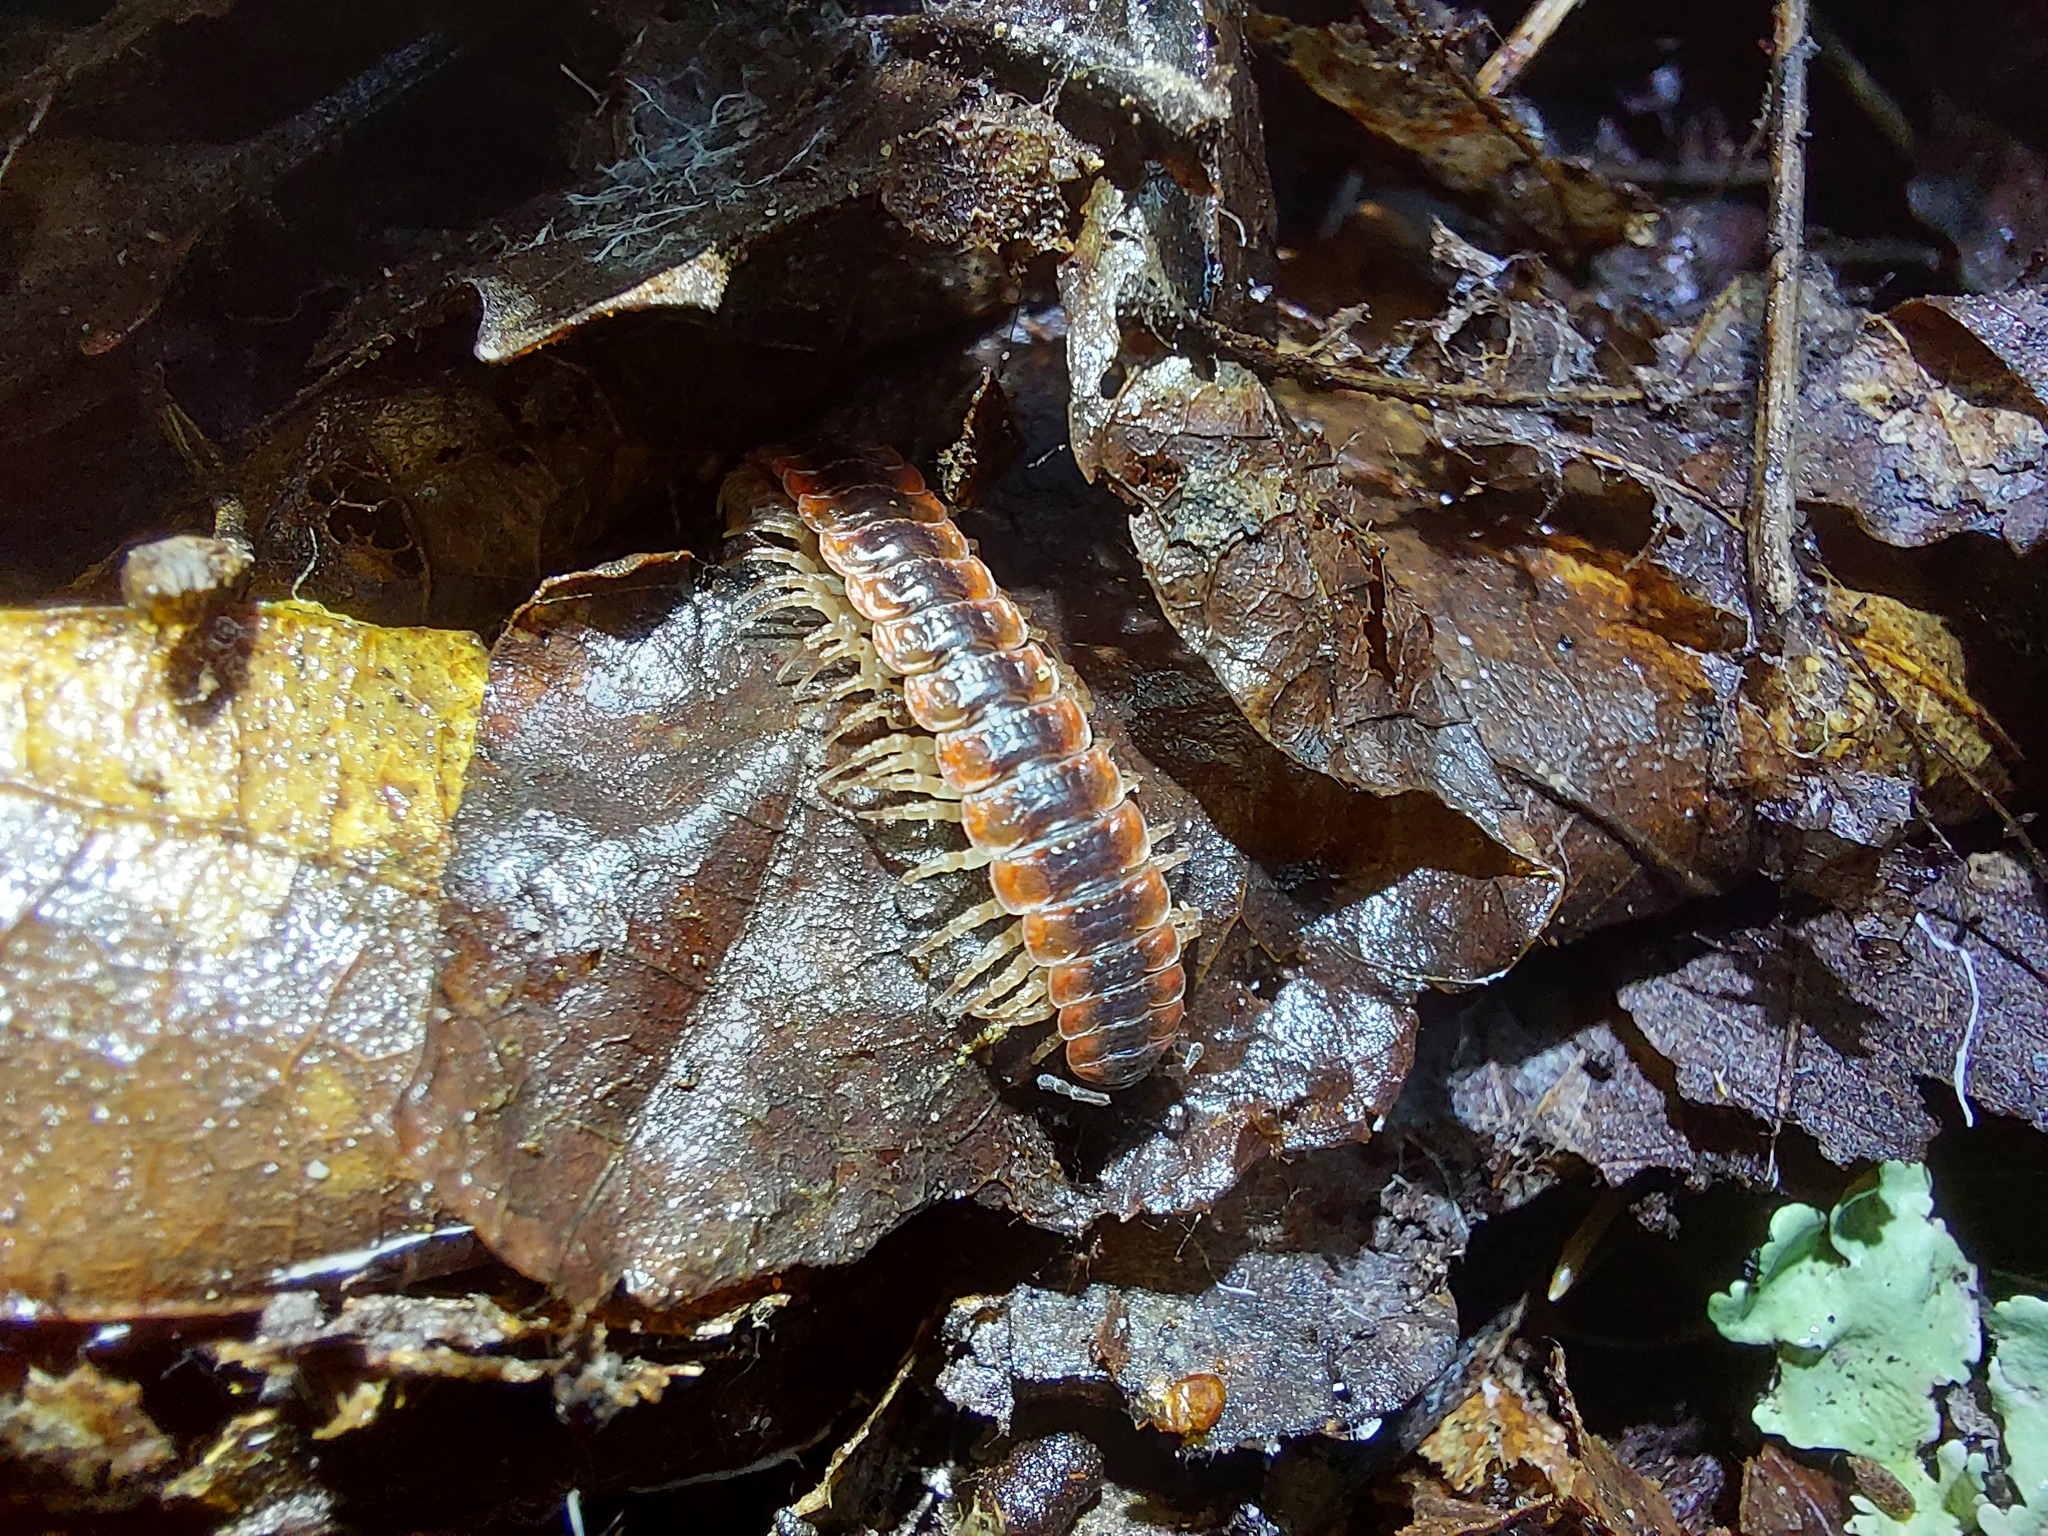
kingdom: Animalia
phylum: Arthropoda
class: Diplopoda
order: Polydesmida
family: Polydesmidae
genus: Pseudopolydesmus
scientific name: Pseudopolydesmus canadensis
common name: Canadian flat-back millipede
